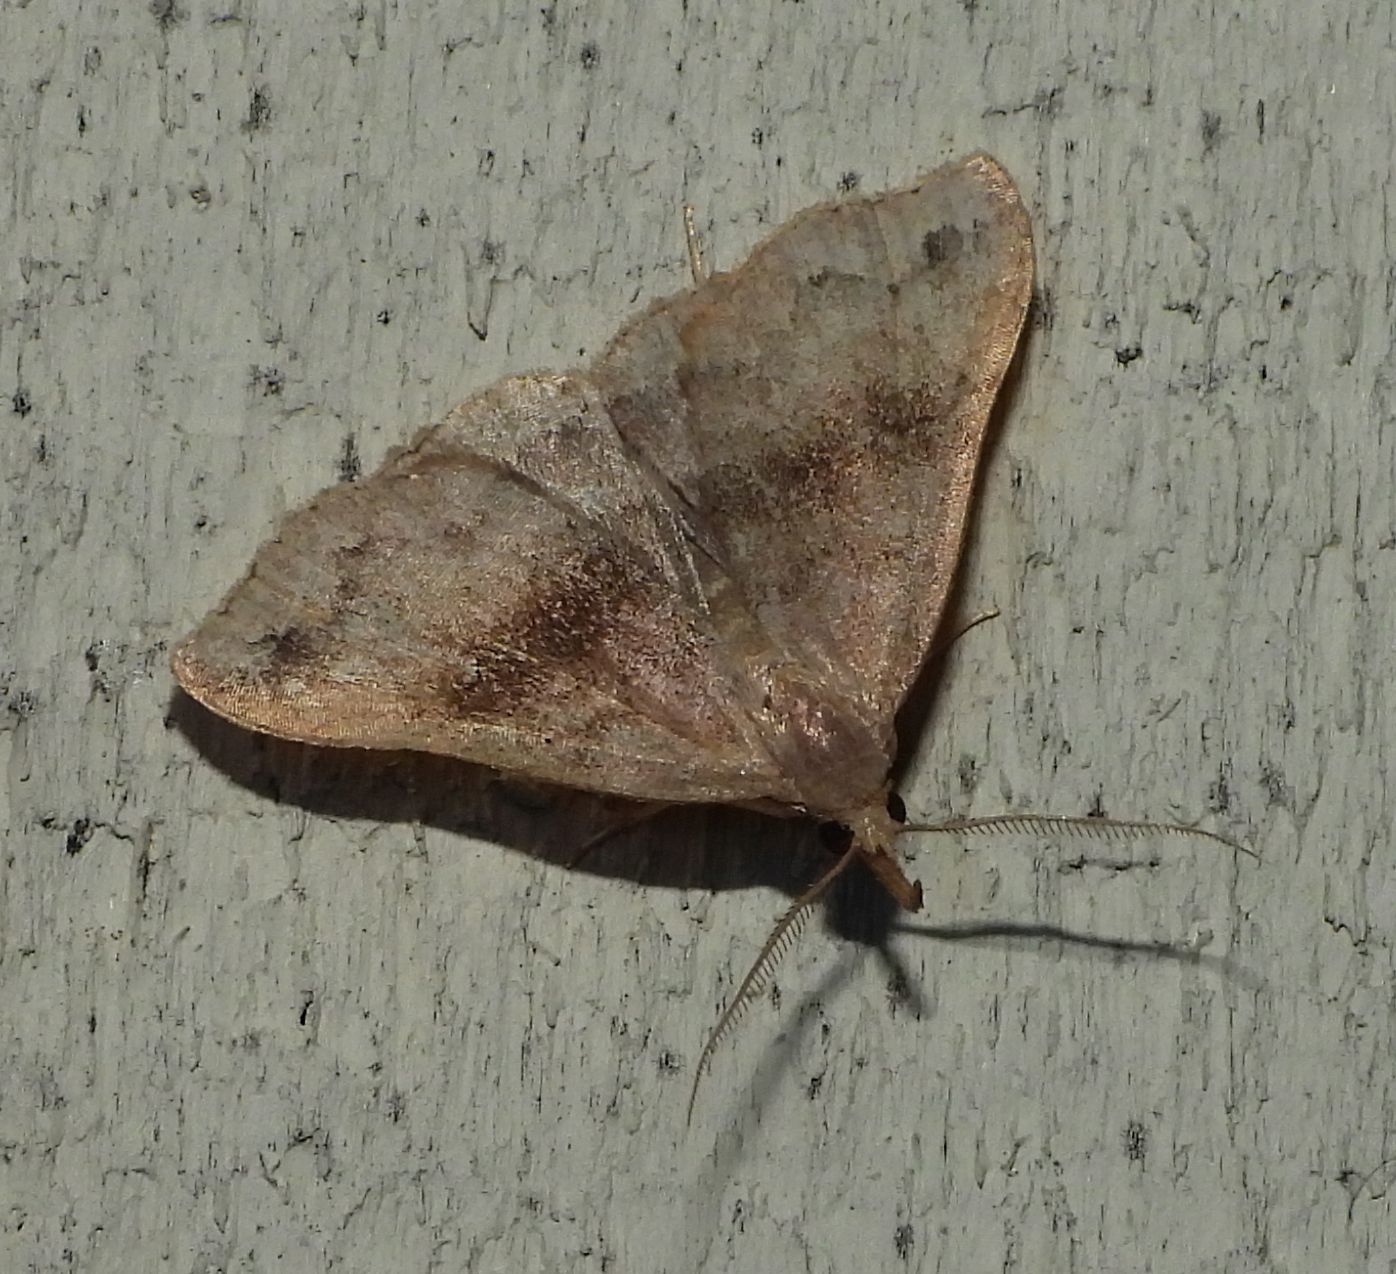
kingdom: Animalia
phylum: Arthropoda
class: Insecta
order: Lepidoptera
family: Erebidae
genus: Phalaenostola
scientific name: Phalaenostola eumelusalis
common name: Dark phalaenostola moth
